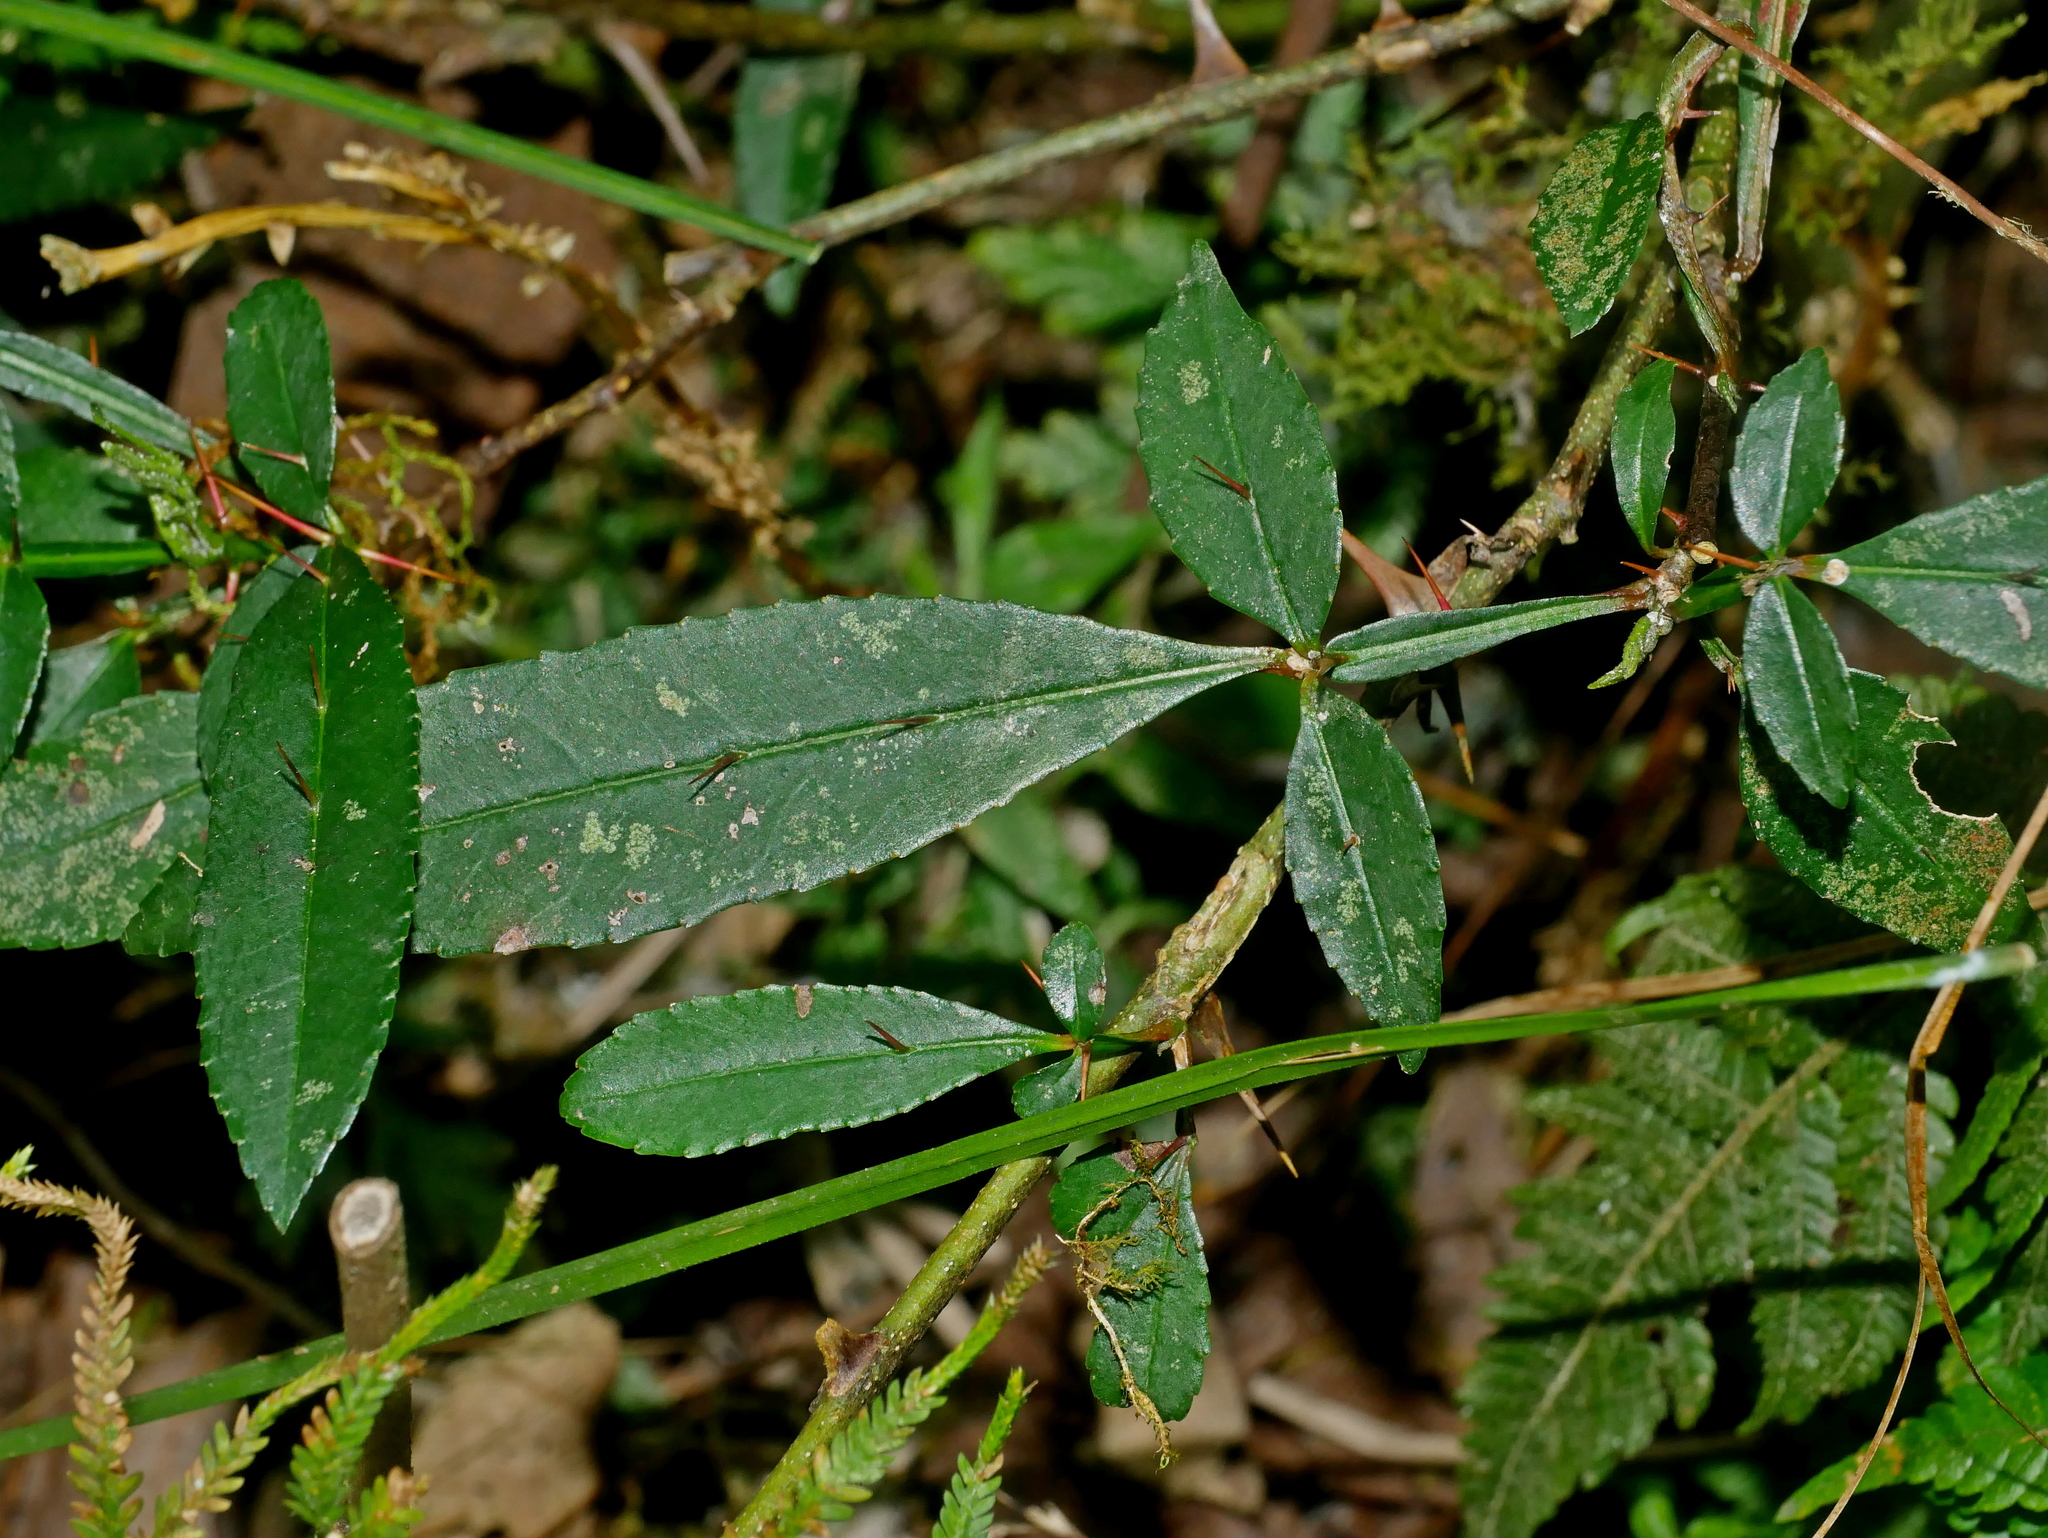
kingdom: Plantae
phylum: Tracheophyta
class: Magnoliopsida
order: Sapindales
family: Rutaceae
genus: Zanthoxylum
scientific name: Zanthoxylum acanthopodium
